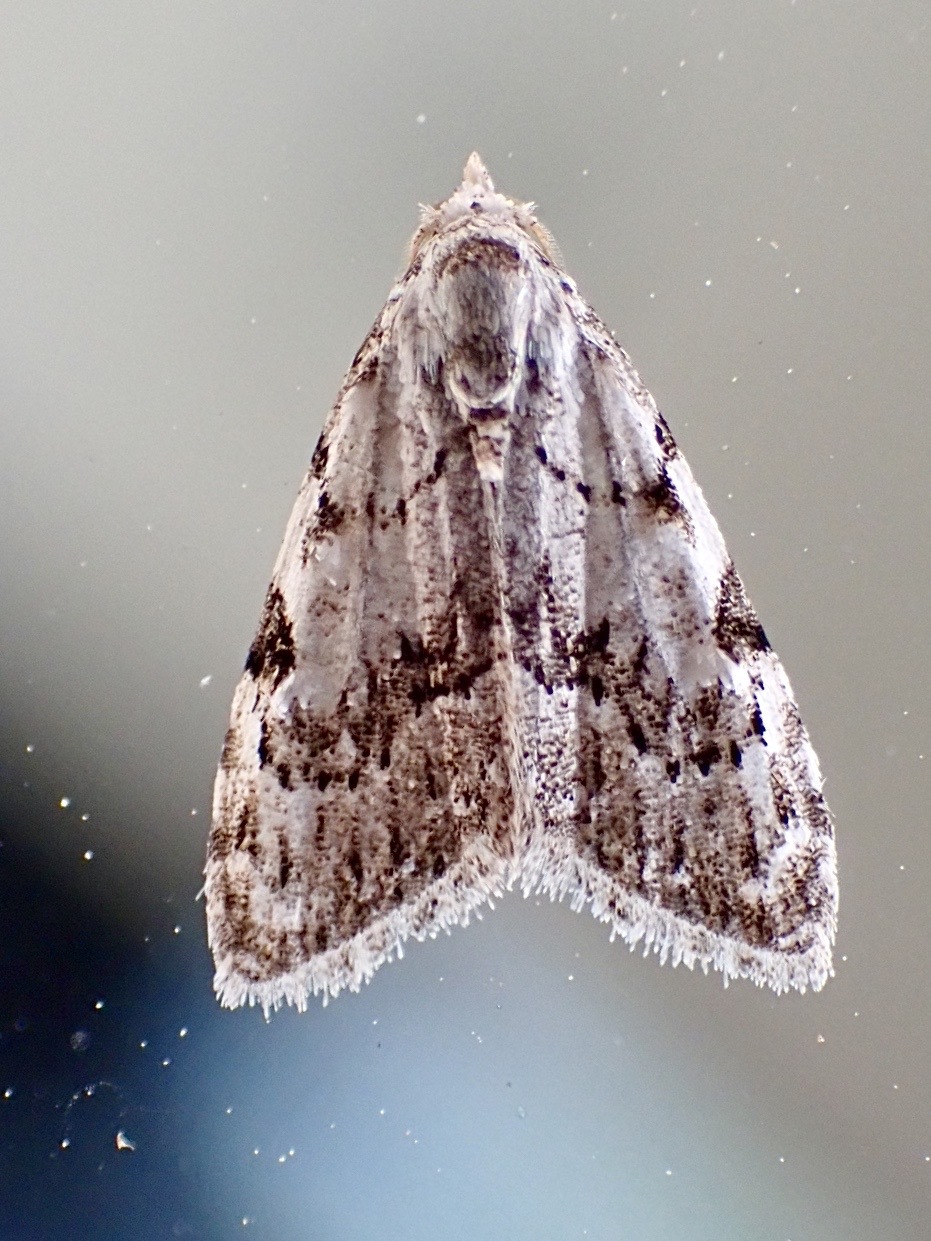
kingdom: Animalia
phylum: Arthropoda
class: Insecta
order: Lepidoptera
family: Nolidae
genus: Nola
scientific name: Nola confusalis
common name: Least black arches
